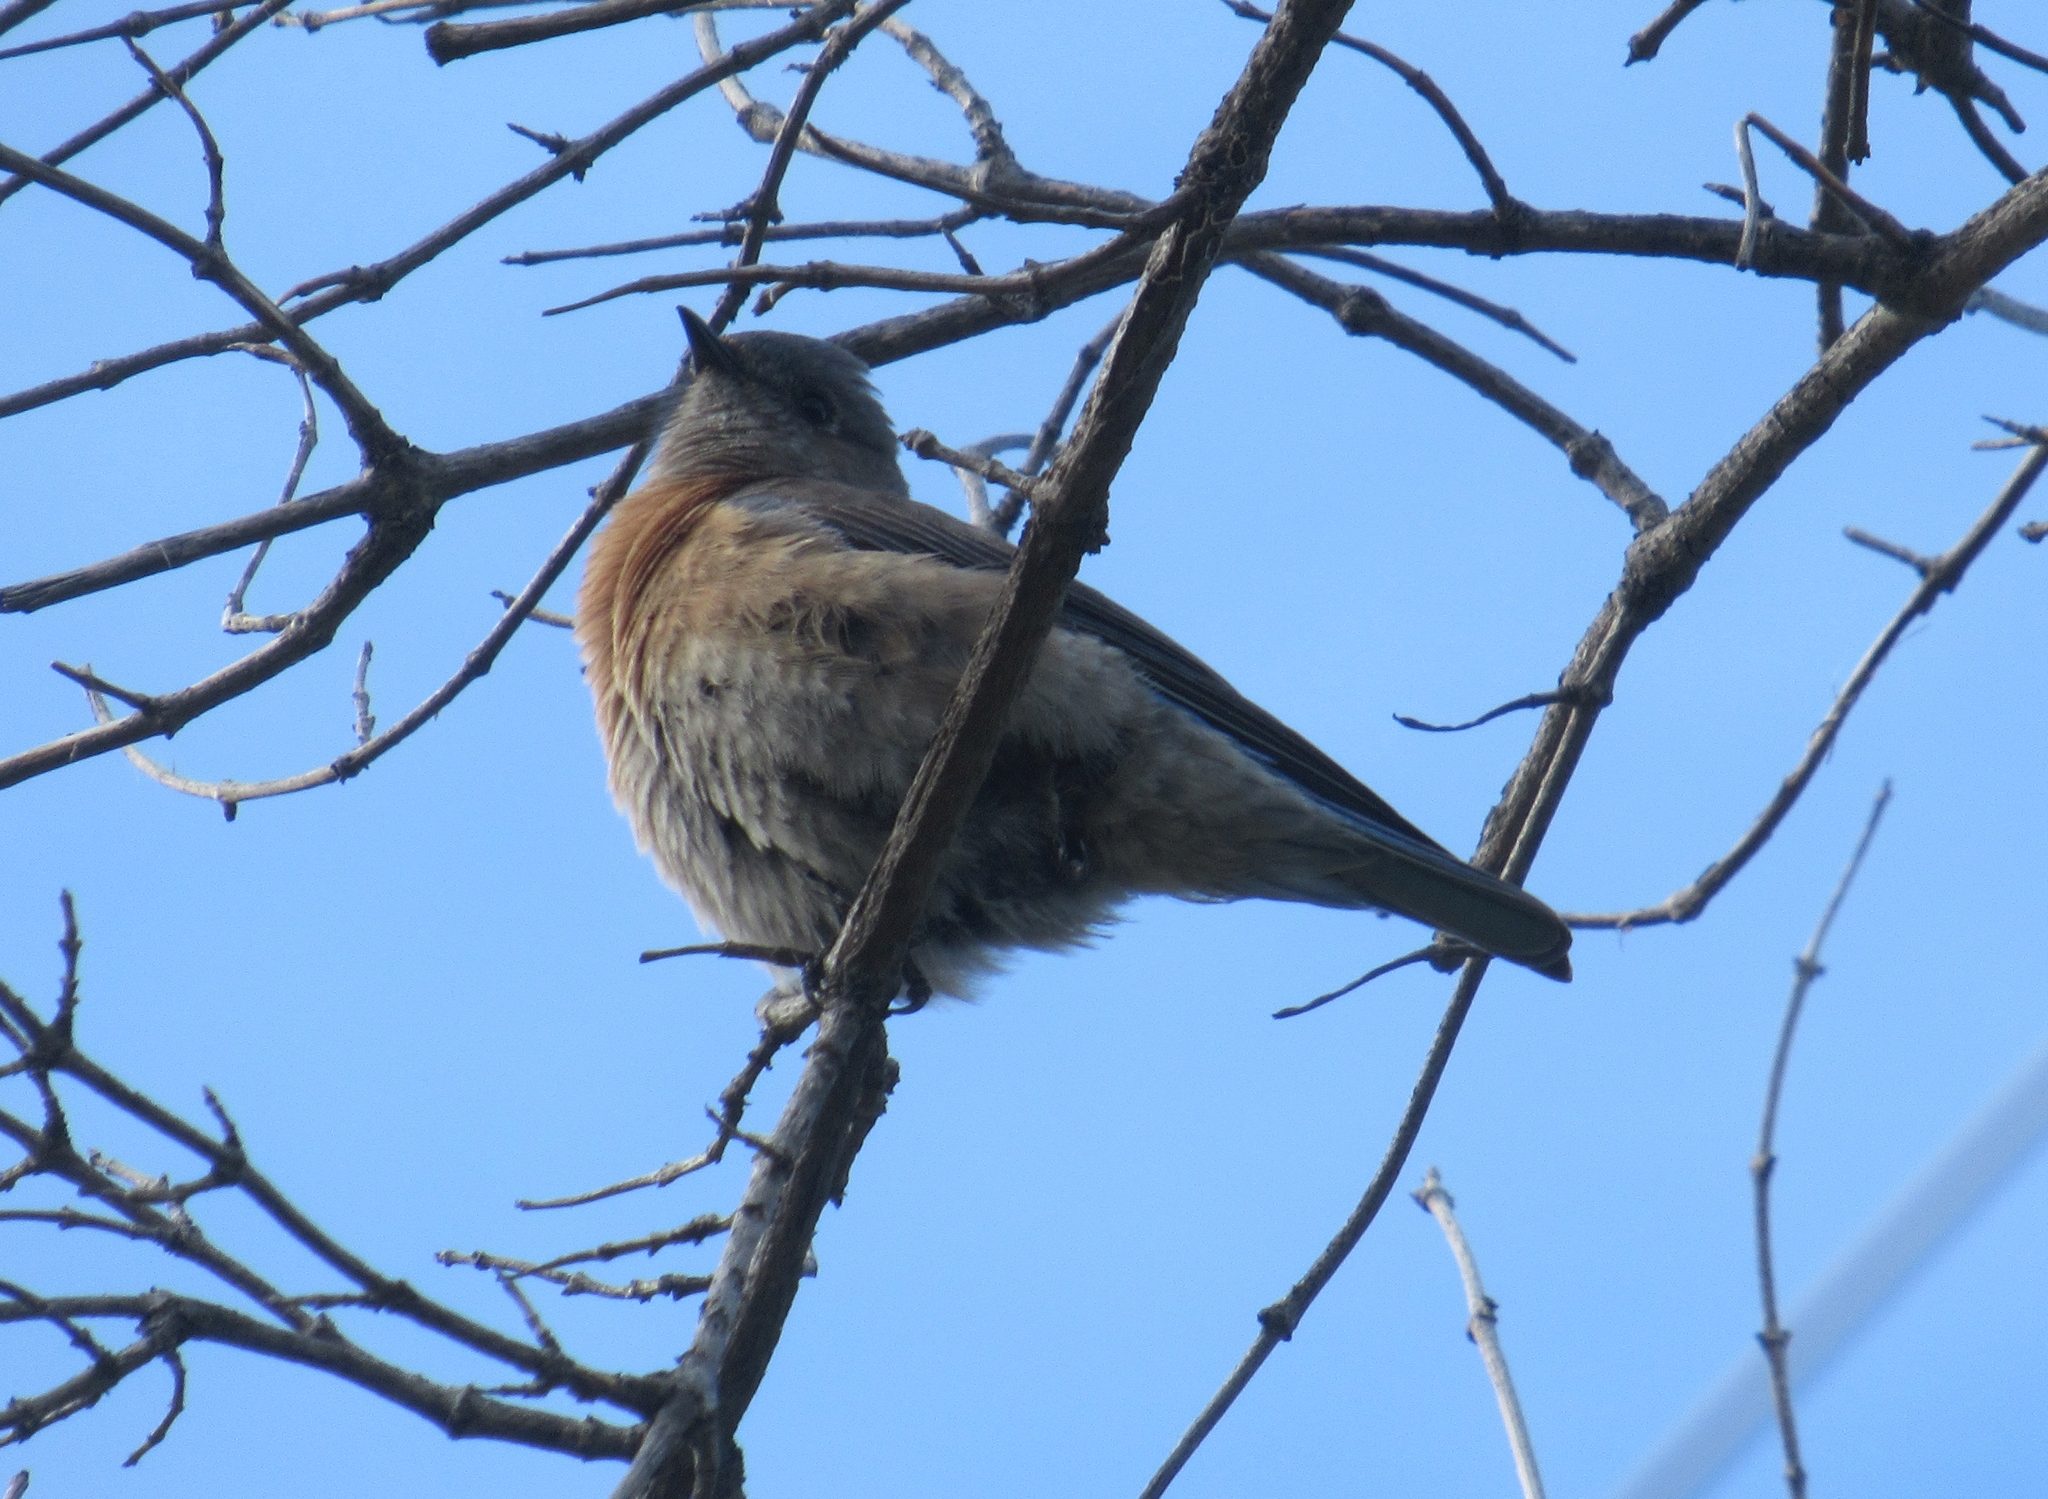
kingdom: Animalia
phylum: Chordata
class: Aves
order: Passeriformes
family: Turdidae
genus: Sialia
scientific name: Sialia mexicana
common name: Western bluebird
